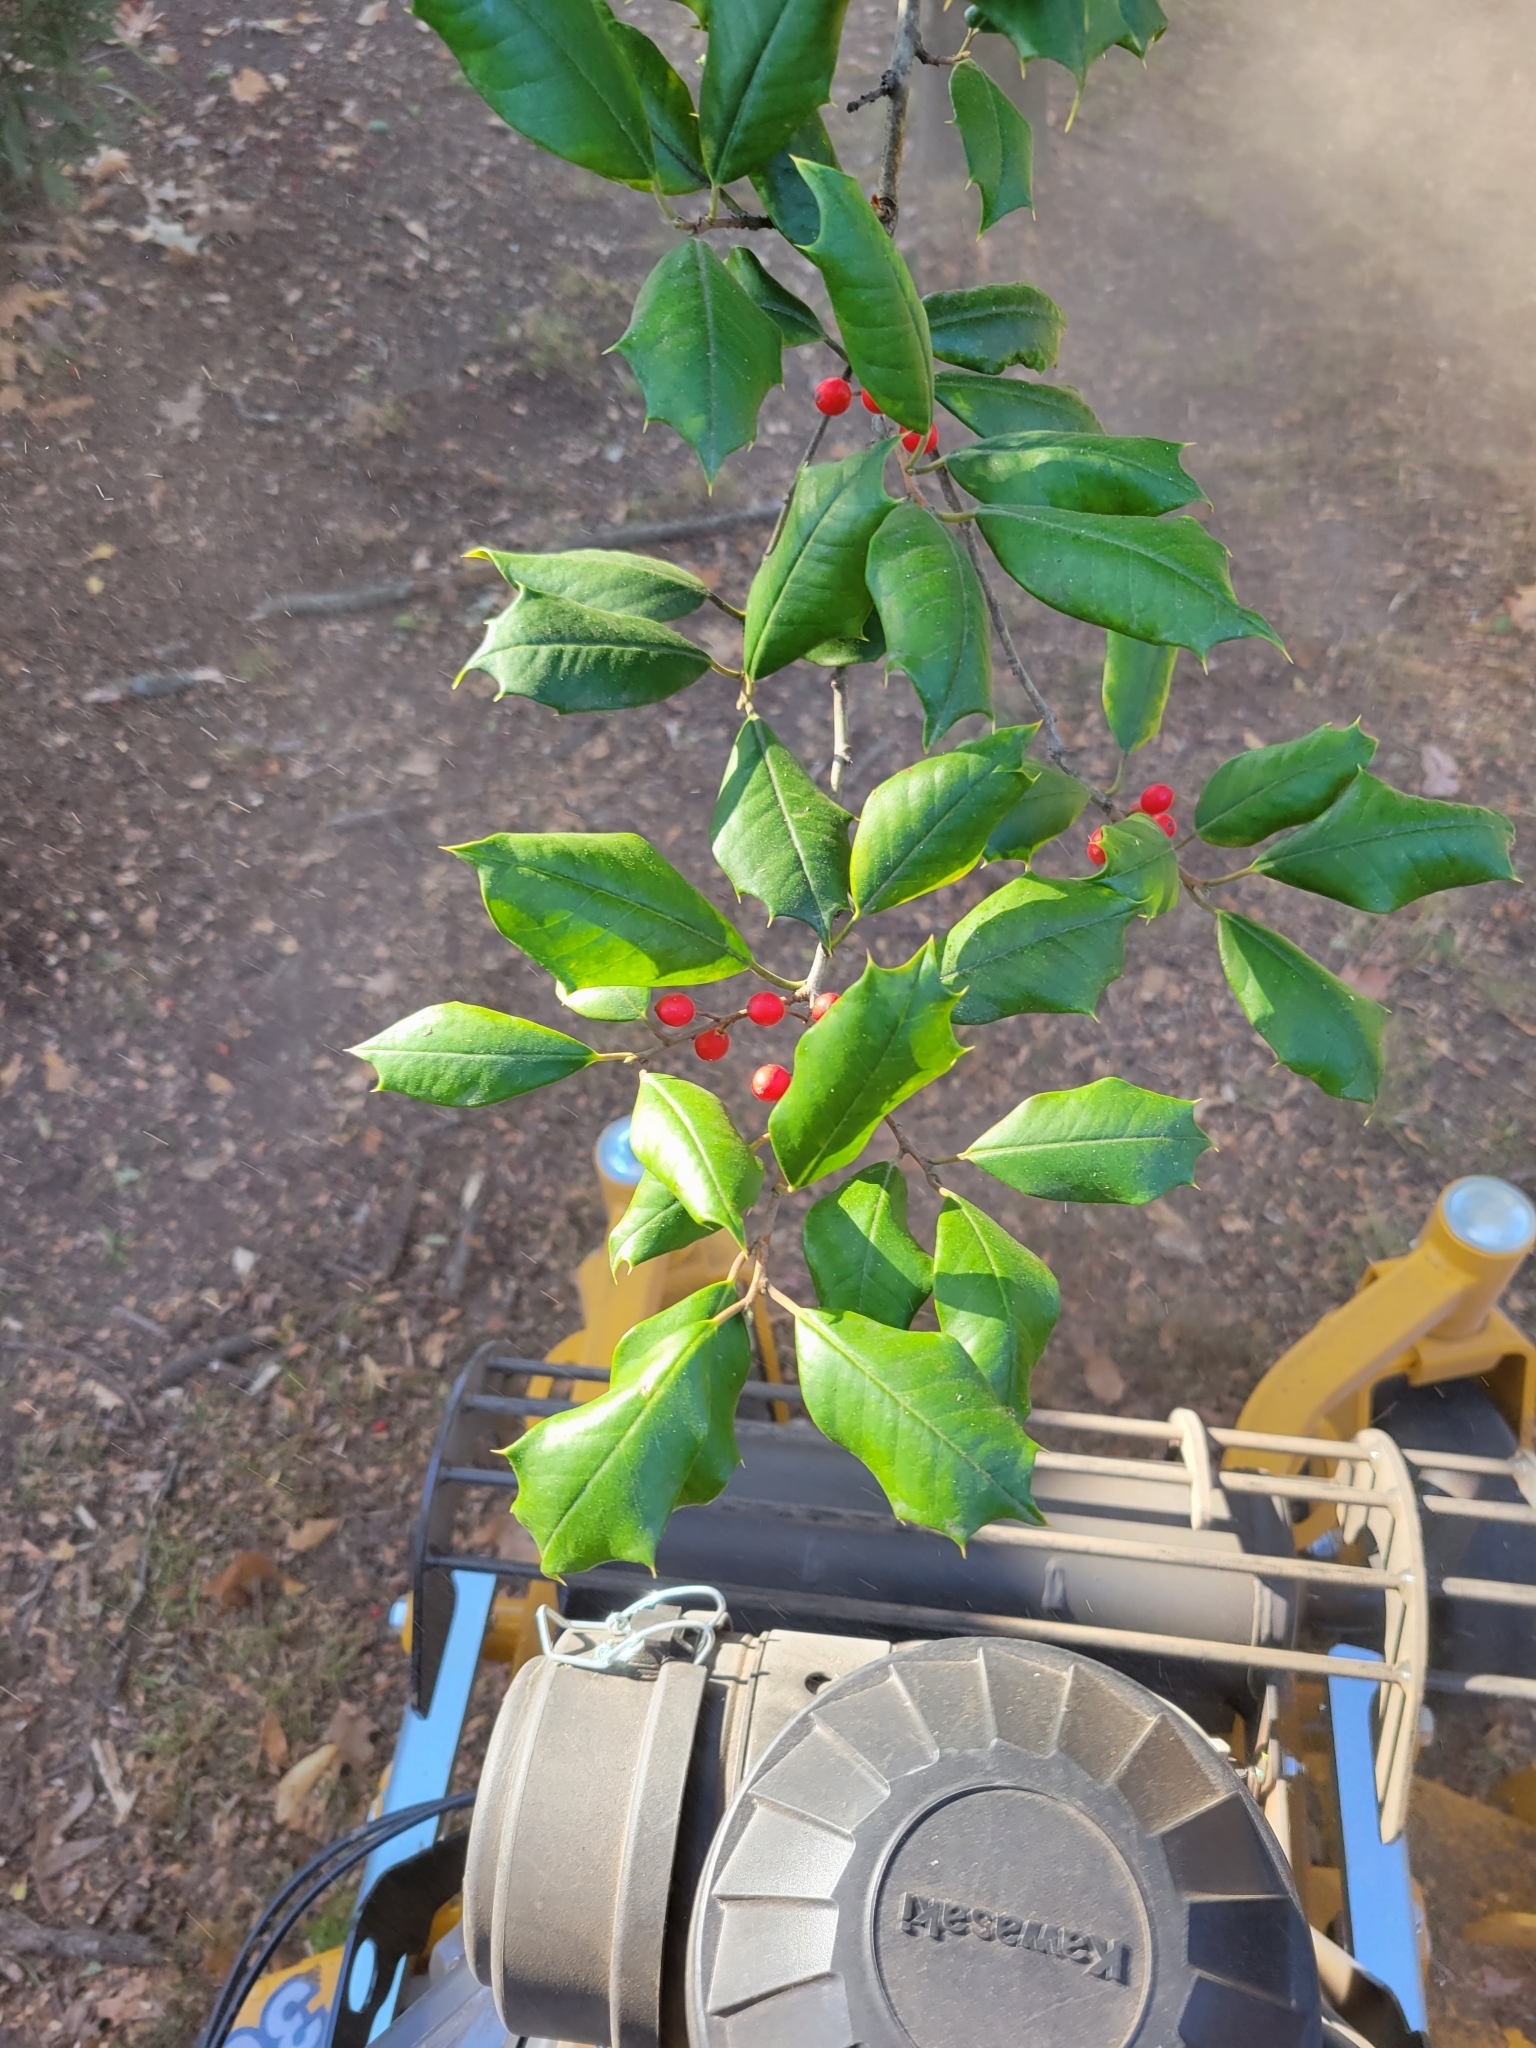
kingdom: Plantae
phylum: Tracheophyta
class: Magnoliopsida
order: Aquifoliales
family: Aquifoliaceae
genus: Ilex
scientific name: Ilex opaca
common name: American holly
